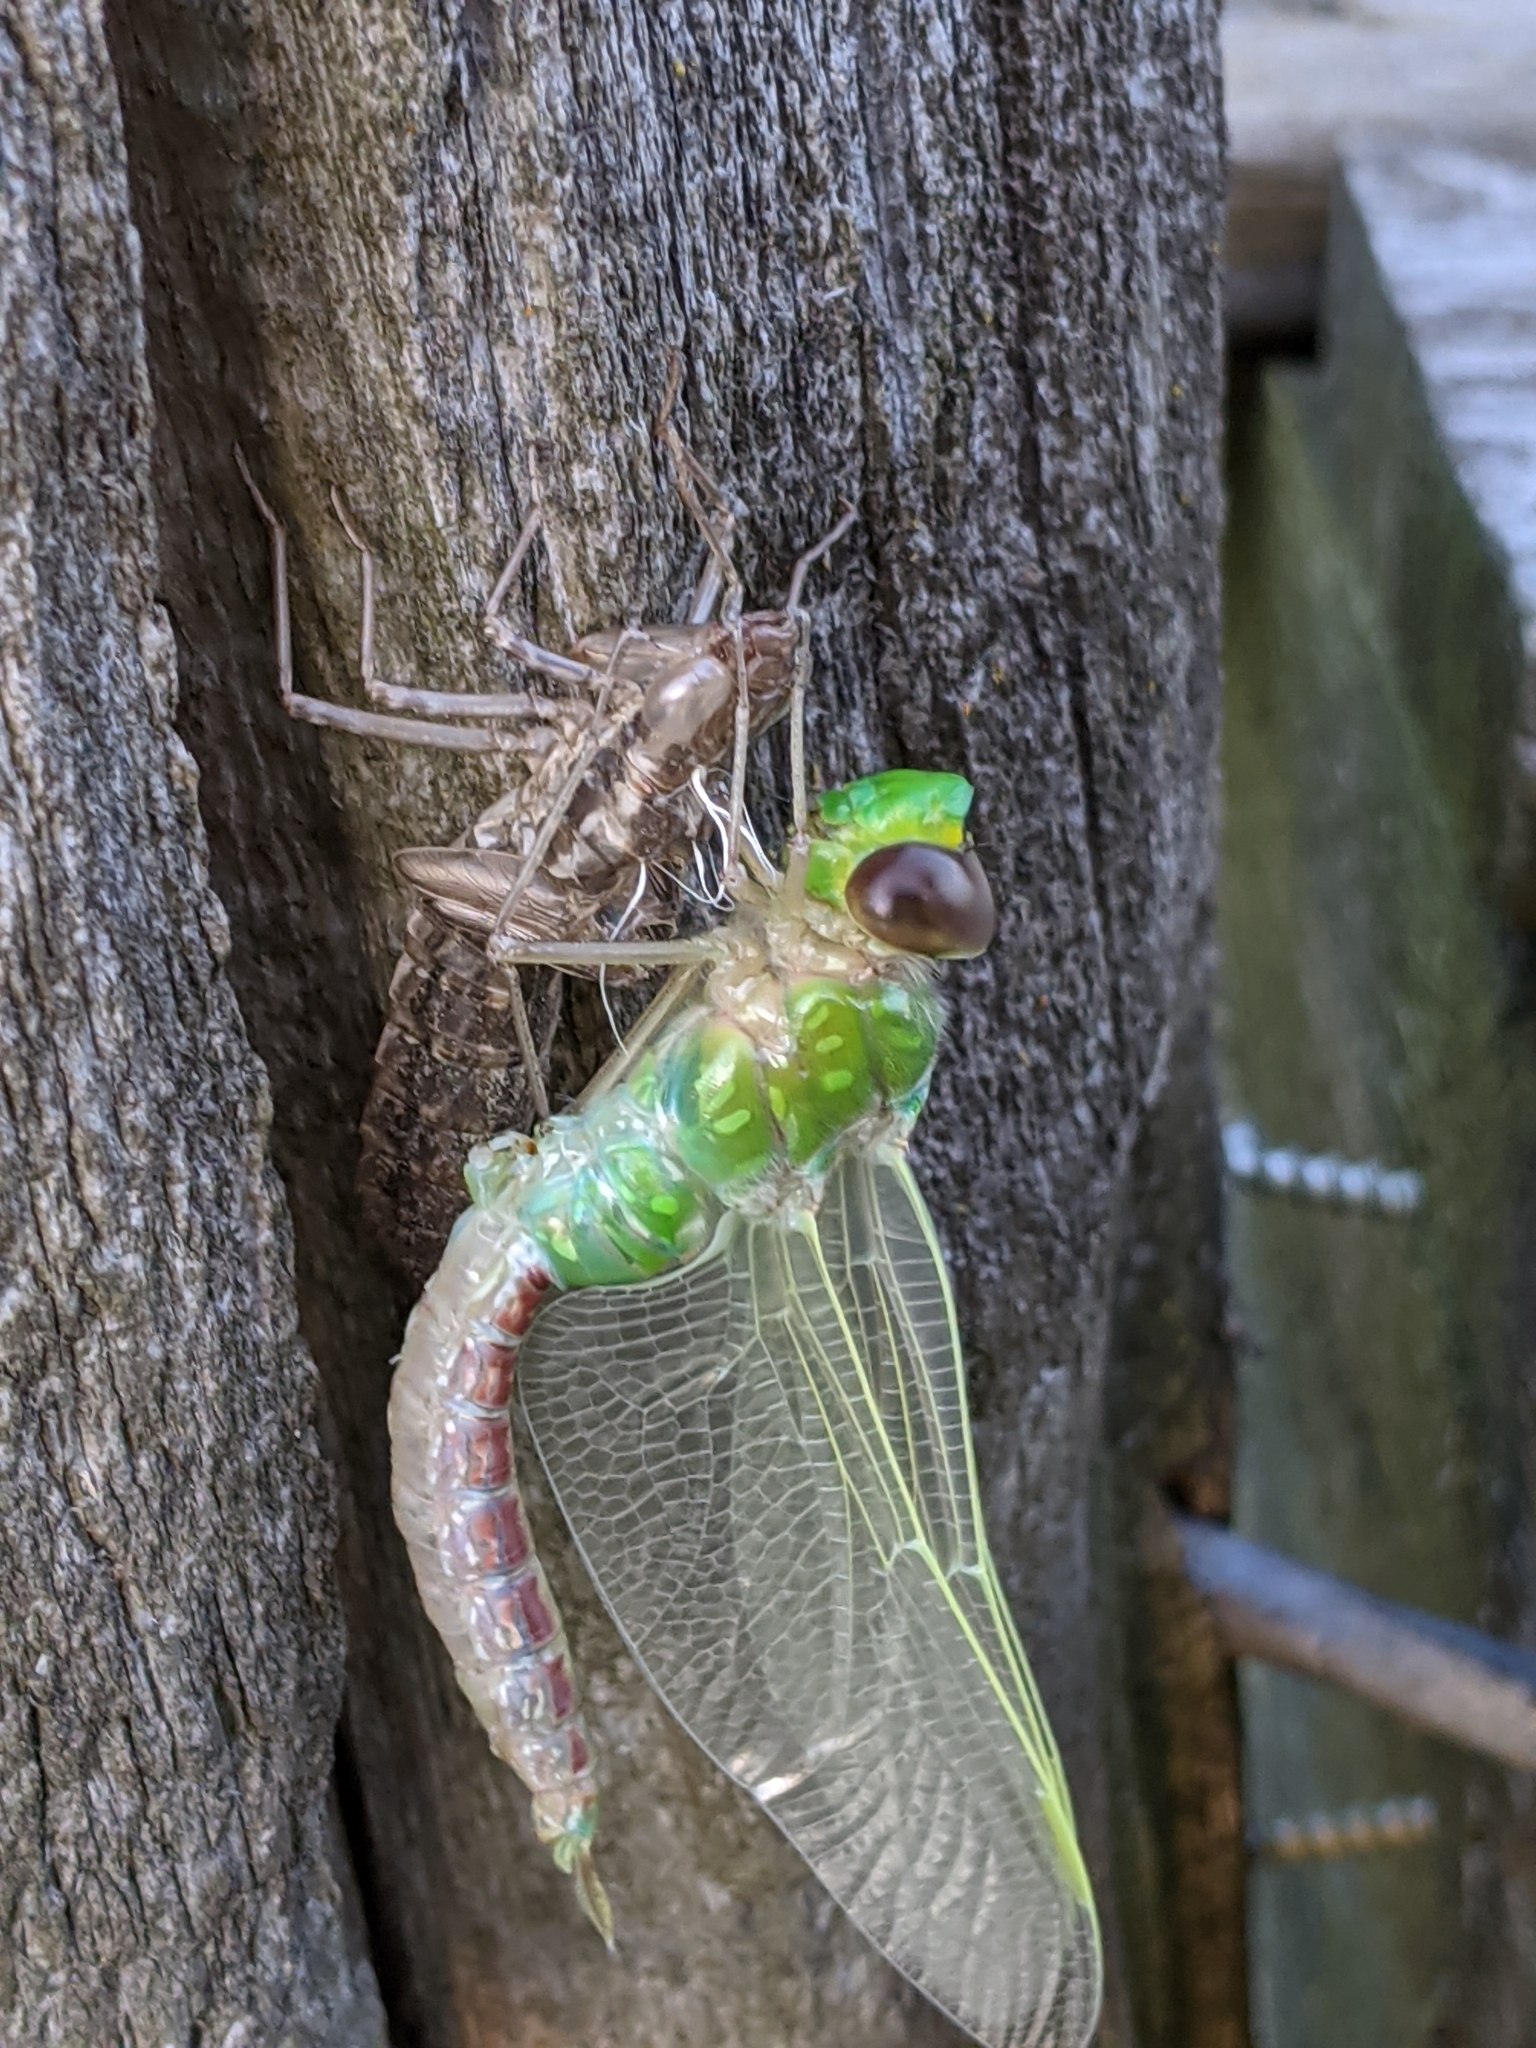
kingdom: Animalia
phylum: Arthropoda
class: Insecta
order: Odonata
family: Aeshnidae
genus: Anax
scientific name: Anax junius
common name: Common green darner
